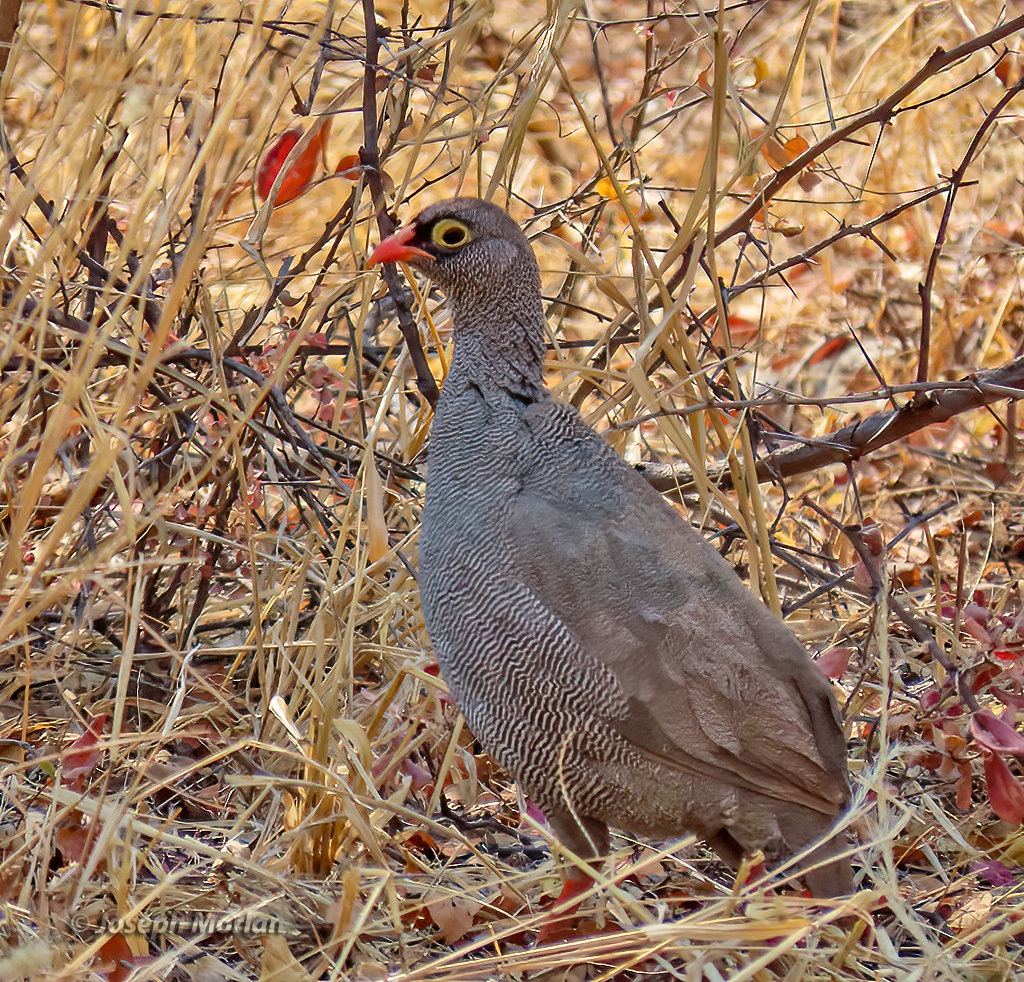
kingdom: Animalia
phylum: Chordata
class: Aves
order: Galliformes
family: Phasianidae
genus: Pternistis
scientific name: Pternistis adspersus
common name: Red-billed spurfowl
